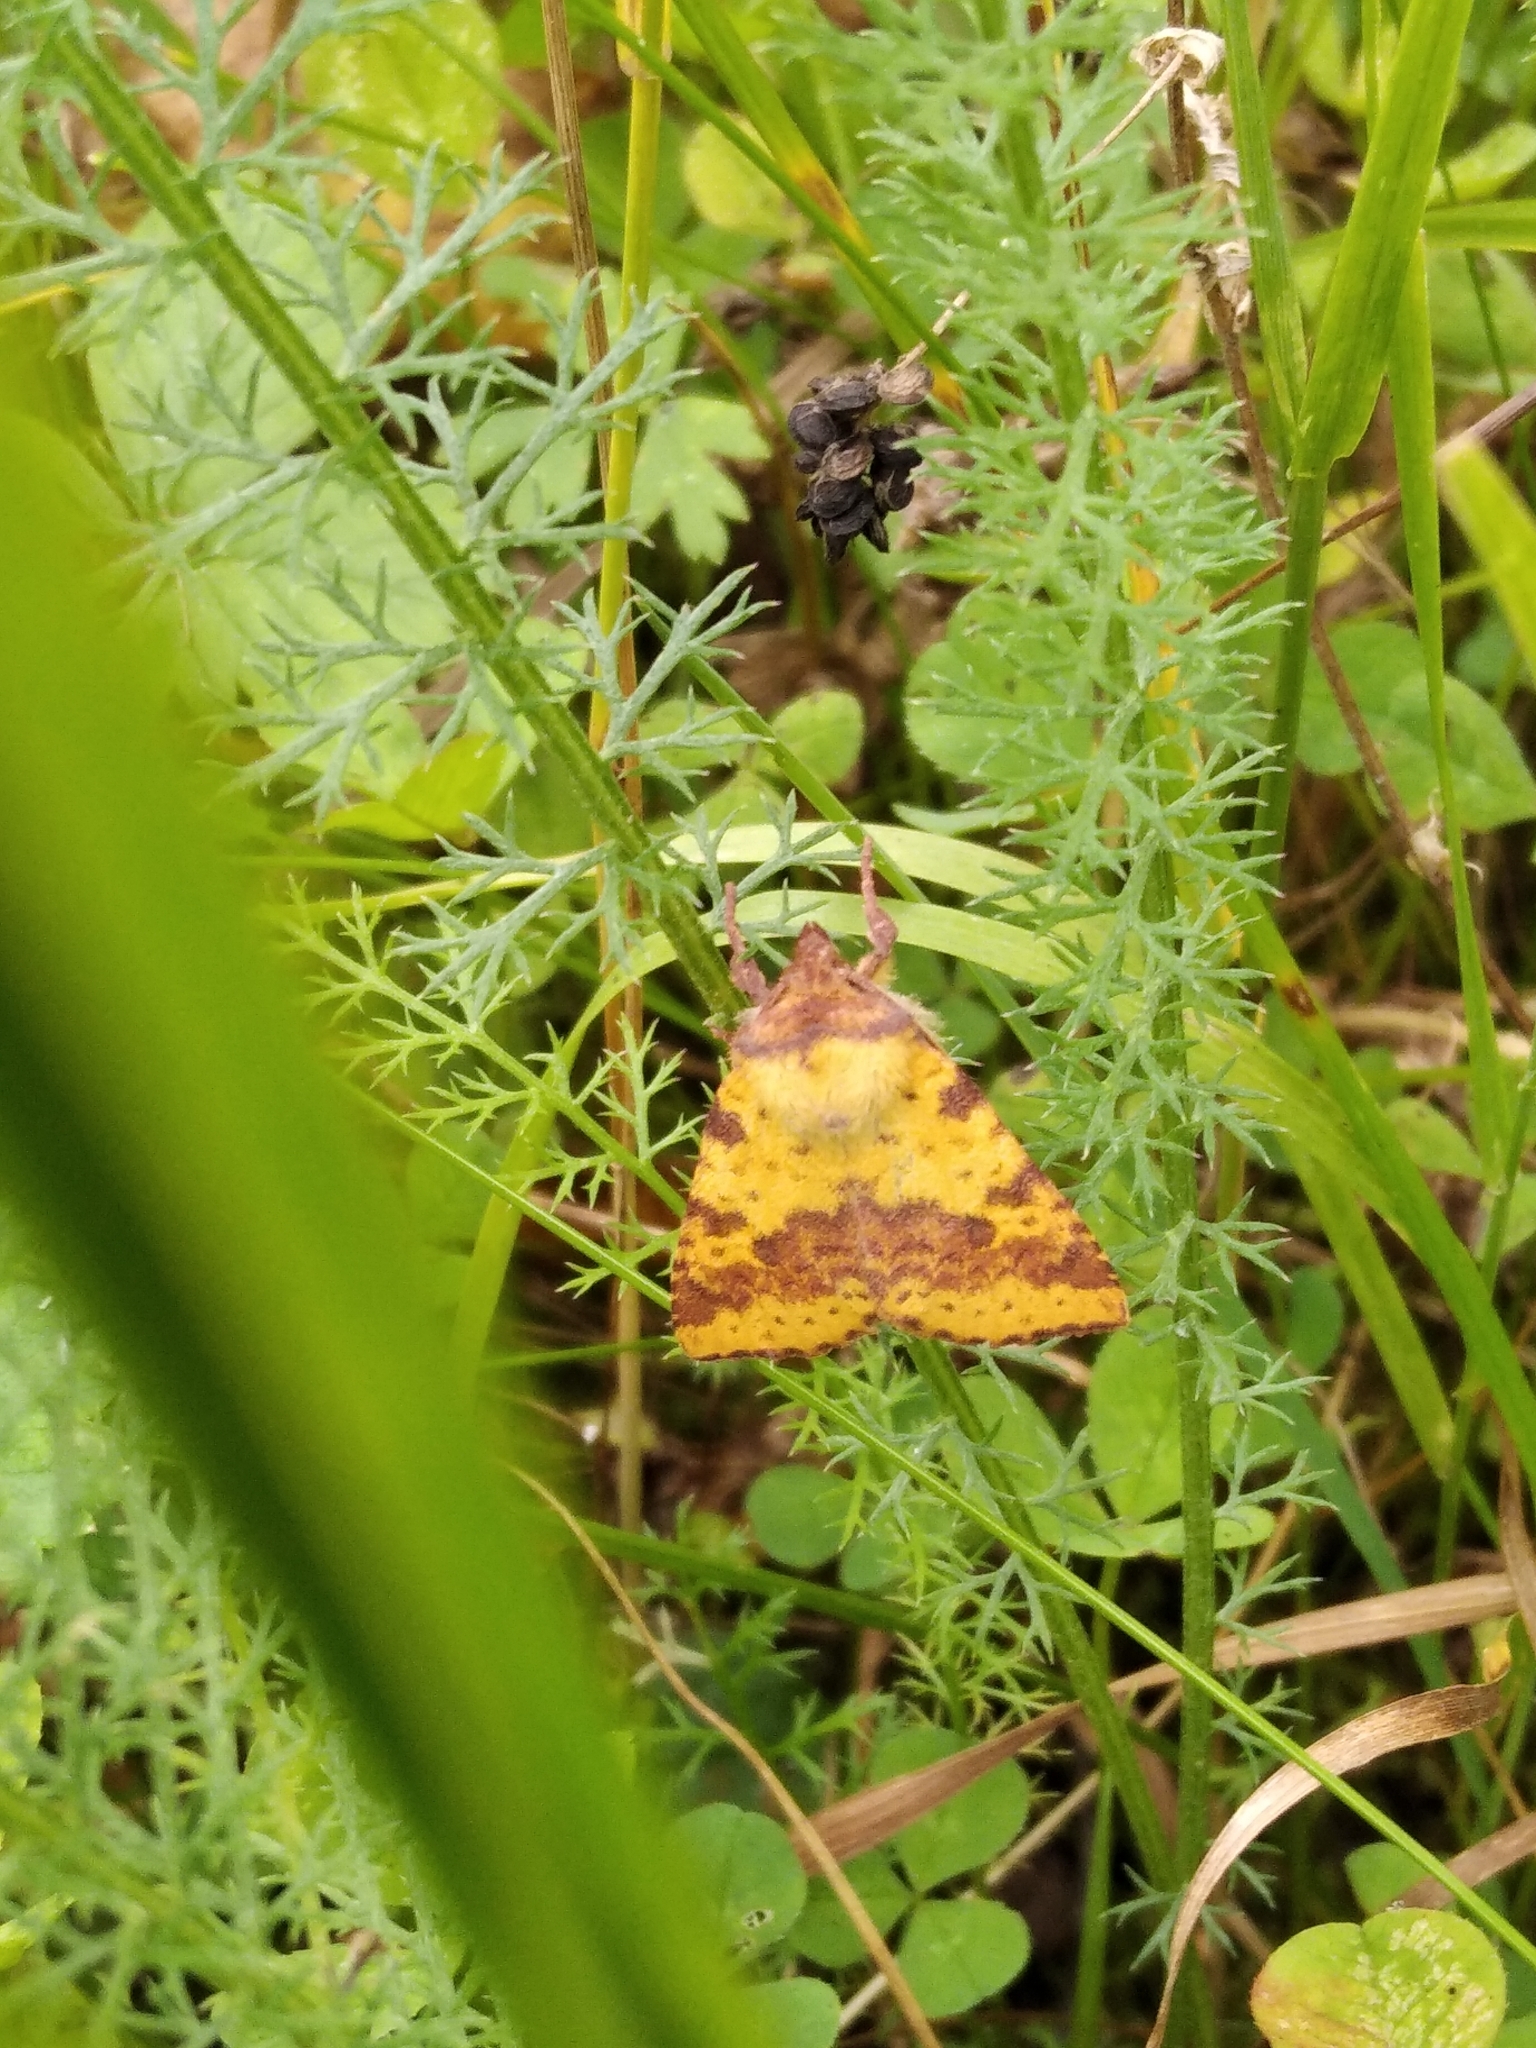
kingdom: Animalia
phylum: Arthropoda
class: Insecta
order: Lepidoptera
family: Noctuidae
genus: Xanthia
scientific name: Xanthia togata
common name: Pink-barred sallow
